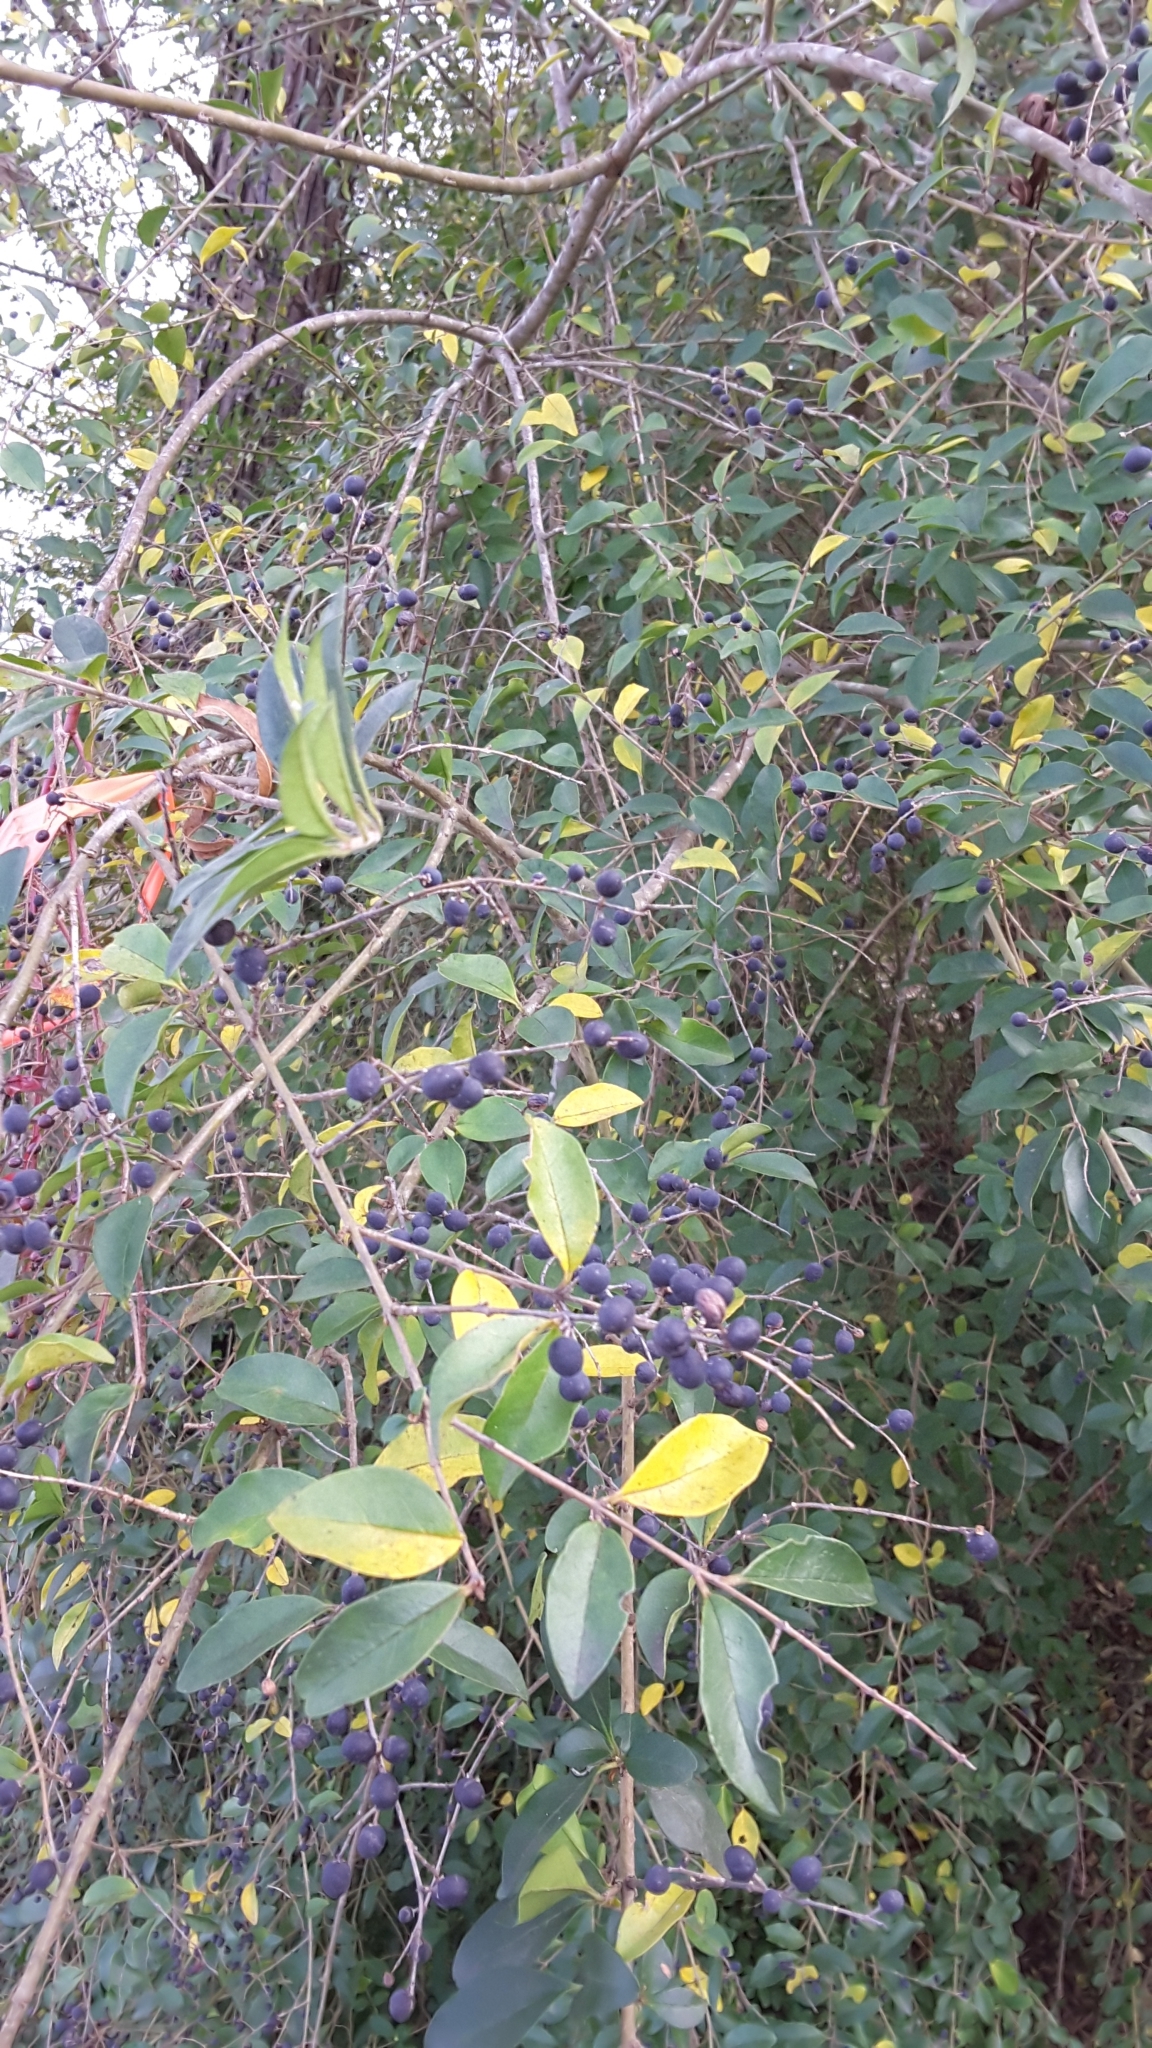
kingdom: Plantae
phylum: Tracheophyta
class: Magnoliopsida
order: Lamiales
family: Oleaceae
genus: Ligustrum
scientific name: Ligustrum sinense
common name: Chinese privet
